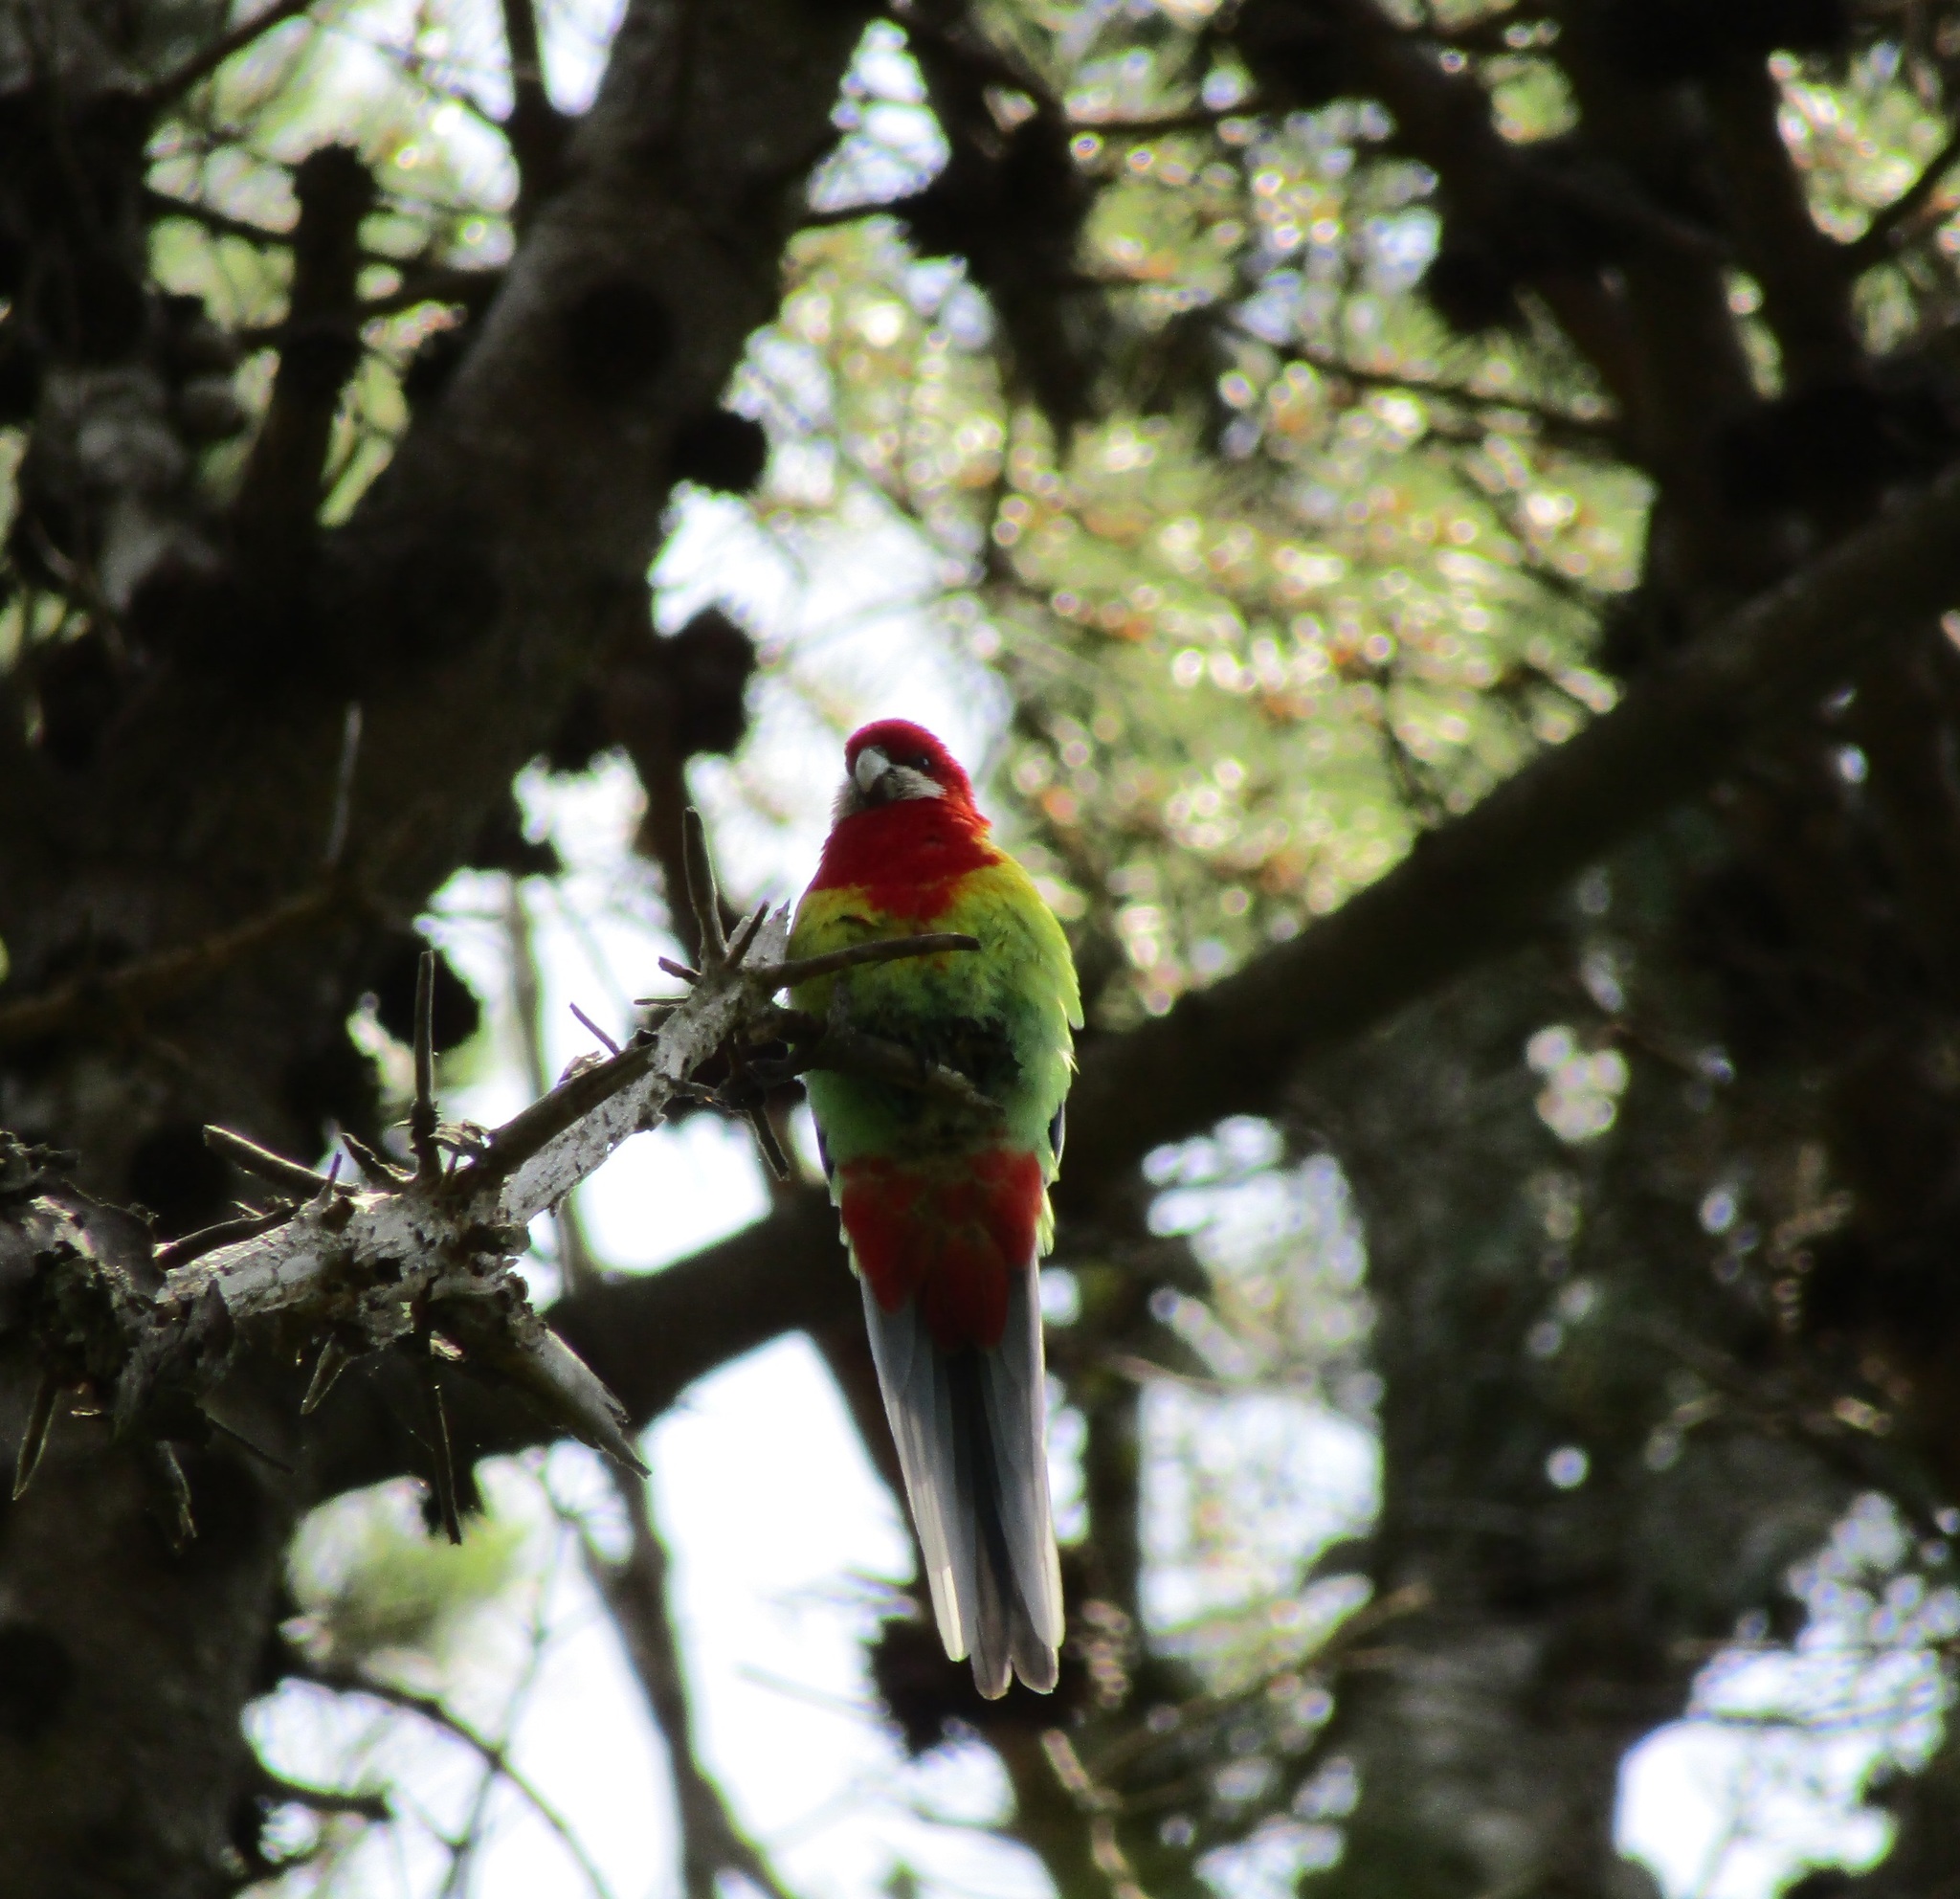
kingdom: Animalia
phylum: Chordata
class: Aves
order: Psittaciformes
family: Psittacidae
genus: Platycercus
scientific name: Platycercus eximius
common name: Eastern rosella
